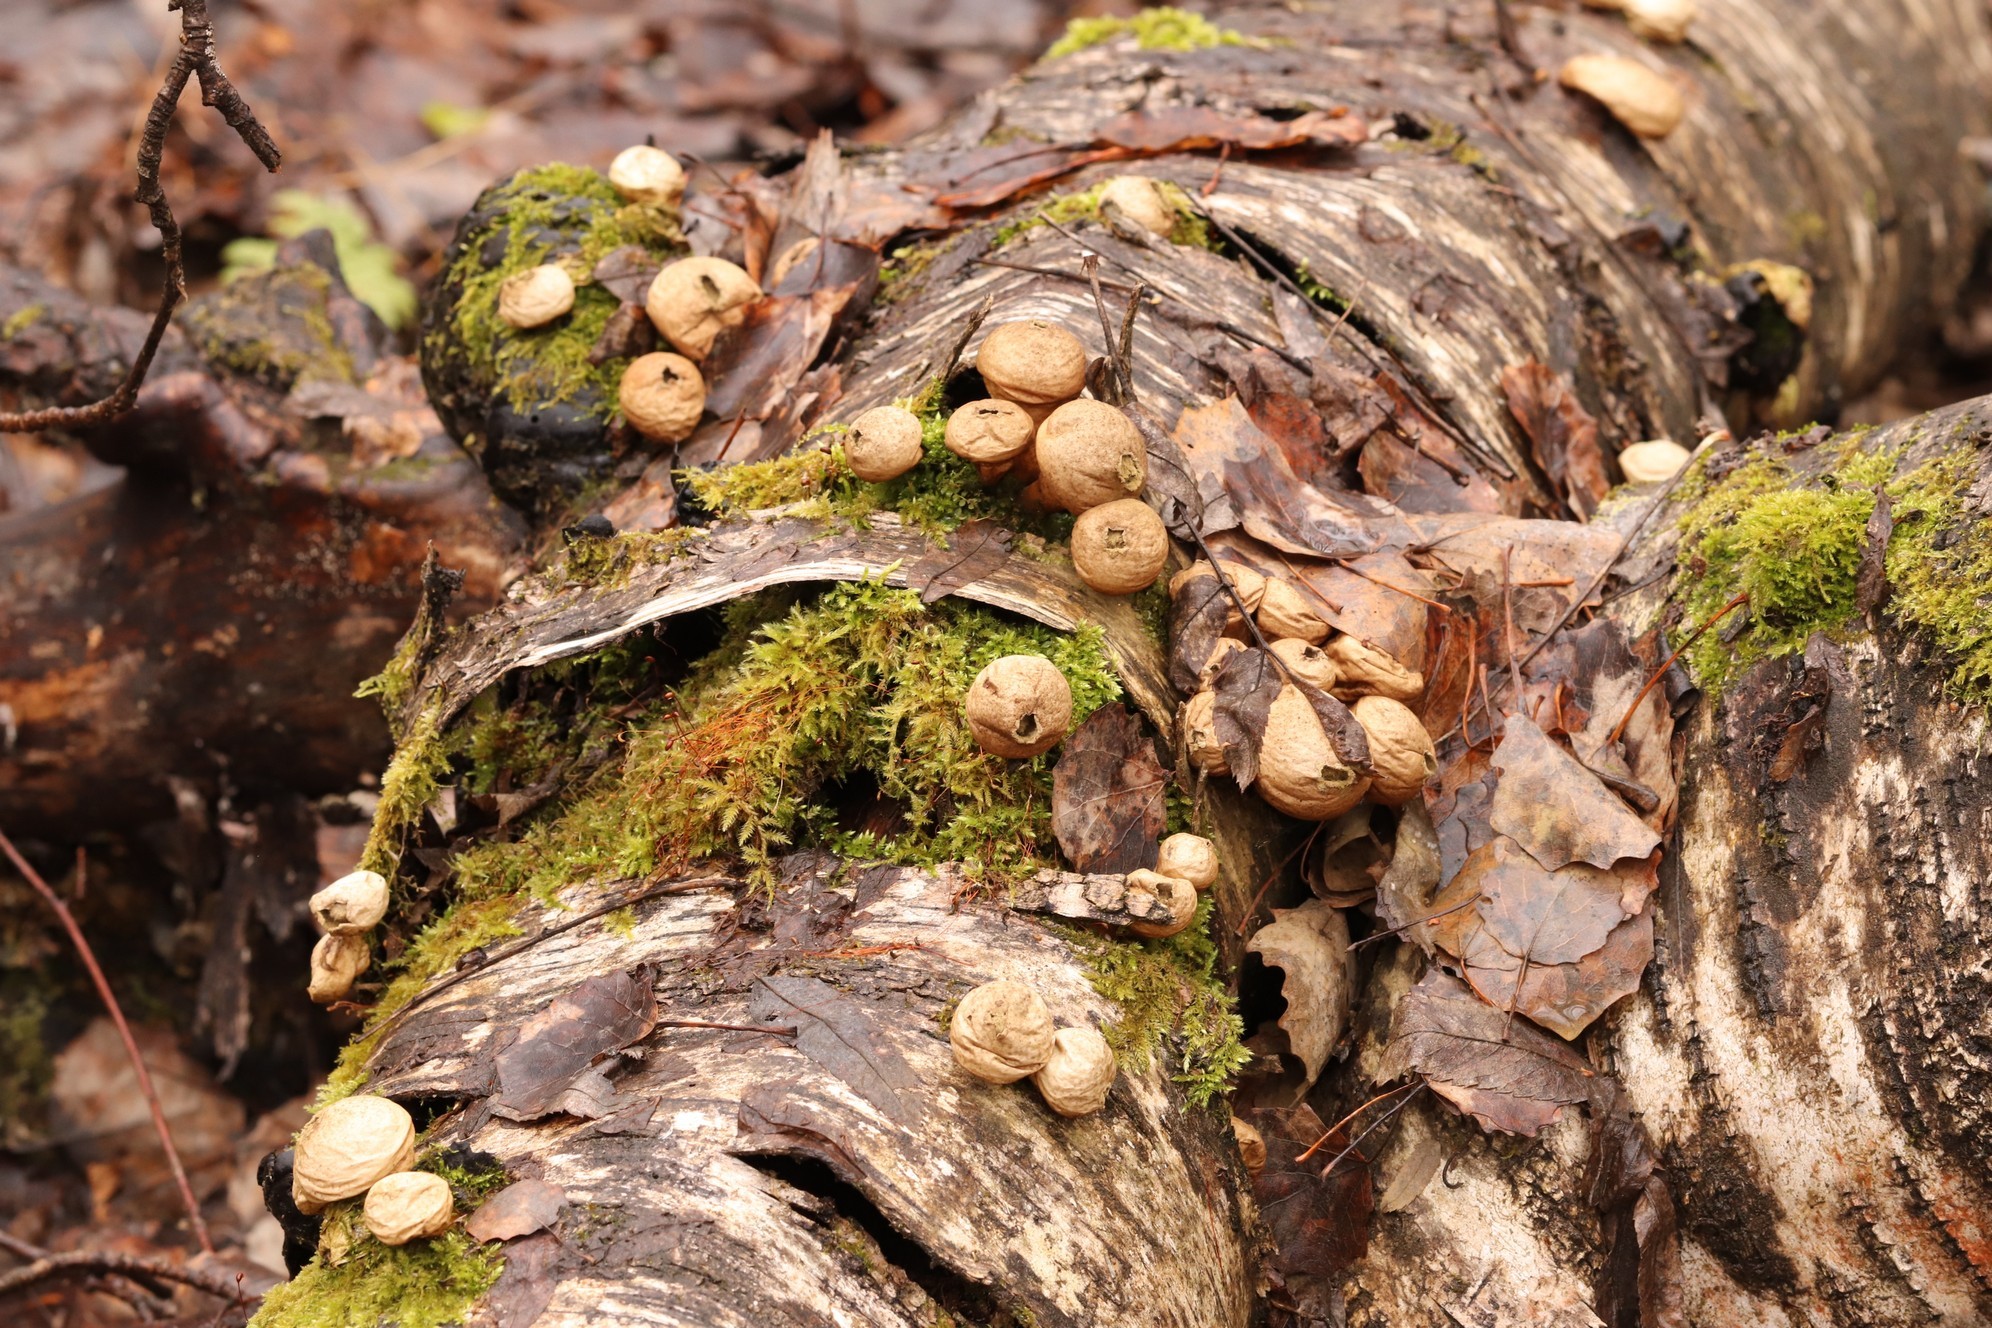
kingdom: Fungi
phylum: Basidiomycota
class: Agaricomycetes
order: Agaricales
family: Lycoperdaceae
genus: Apioperdon
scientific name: Apioperdon pyriforme
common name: Pear-shaped puffball
